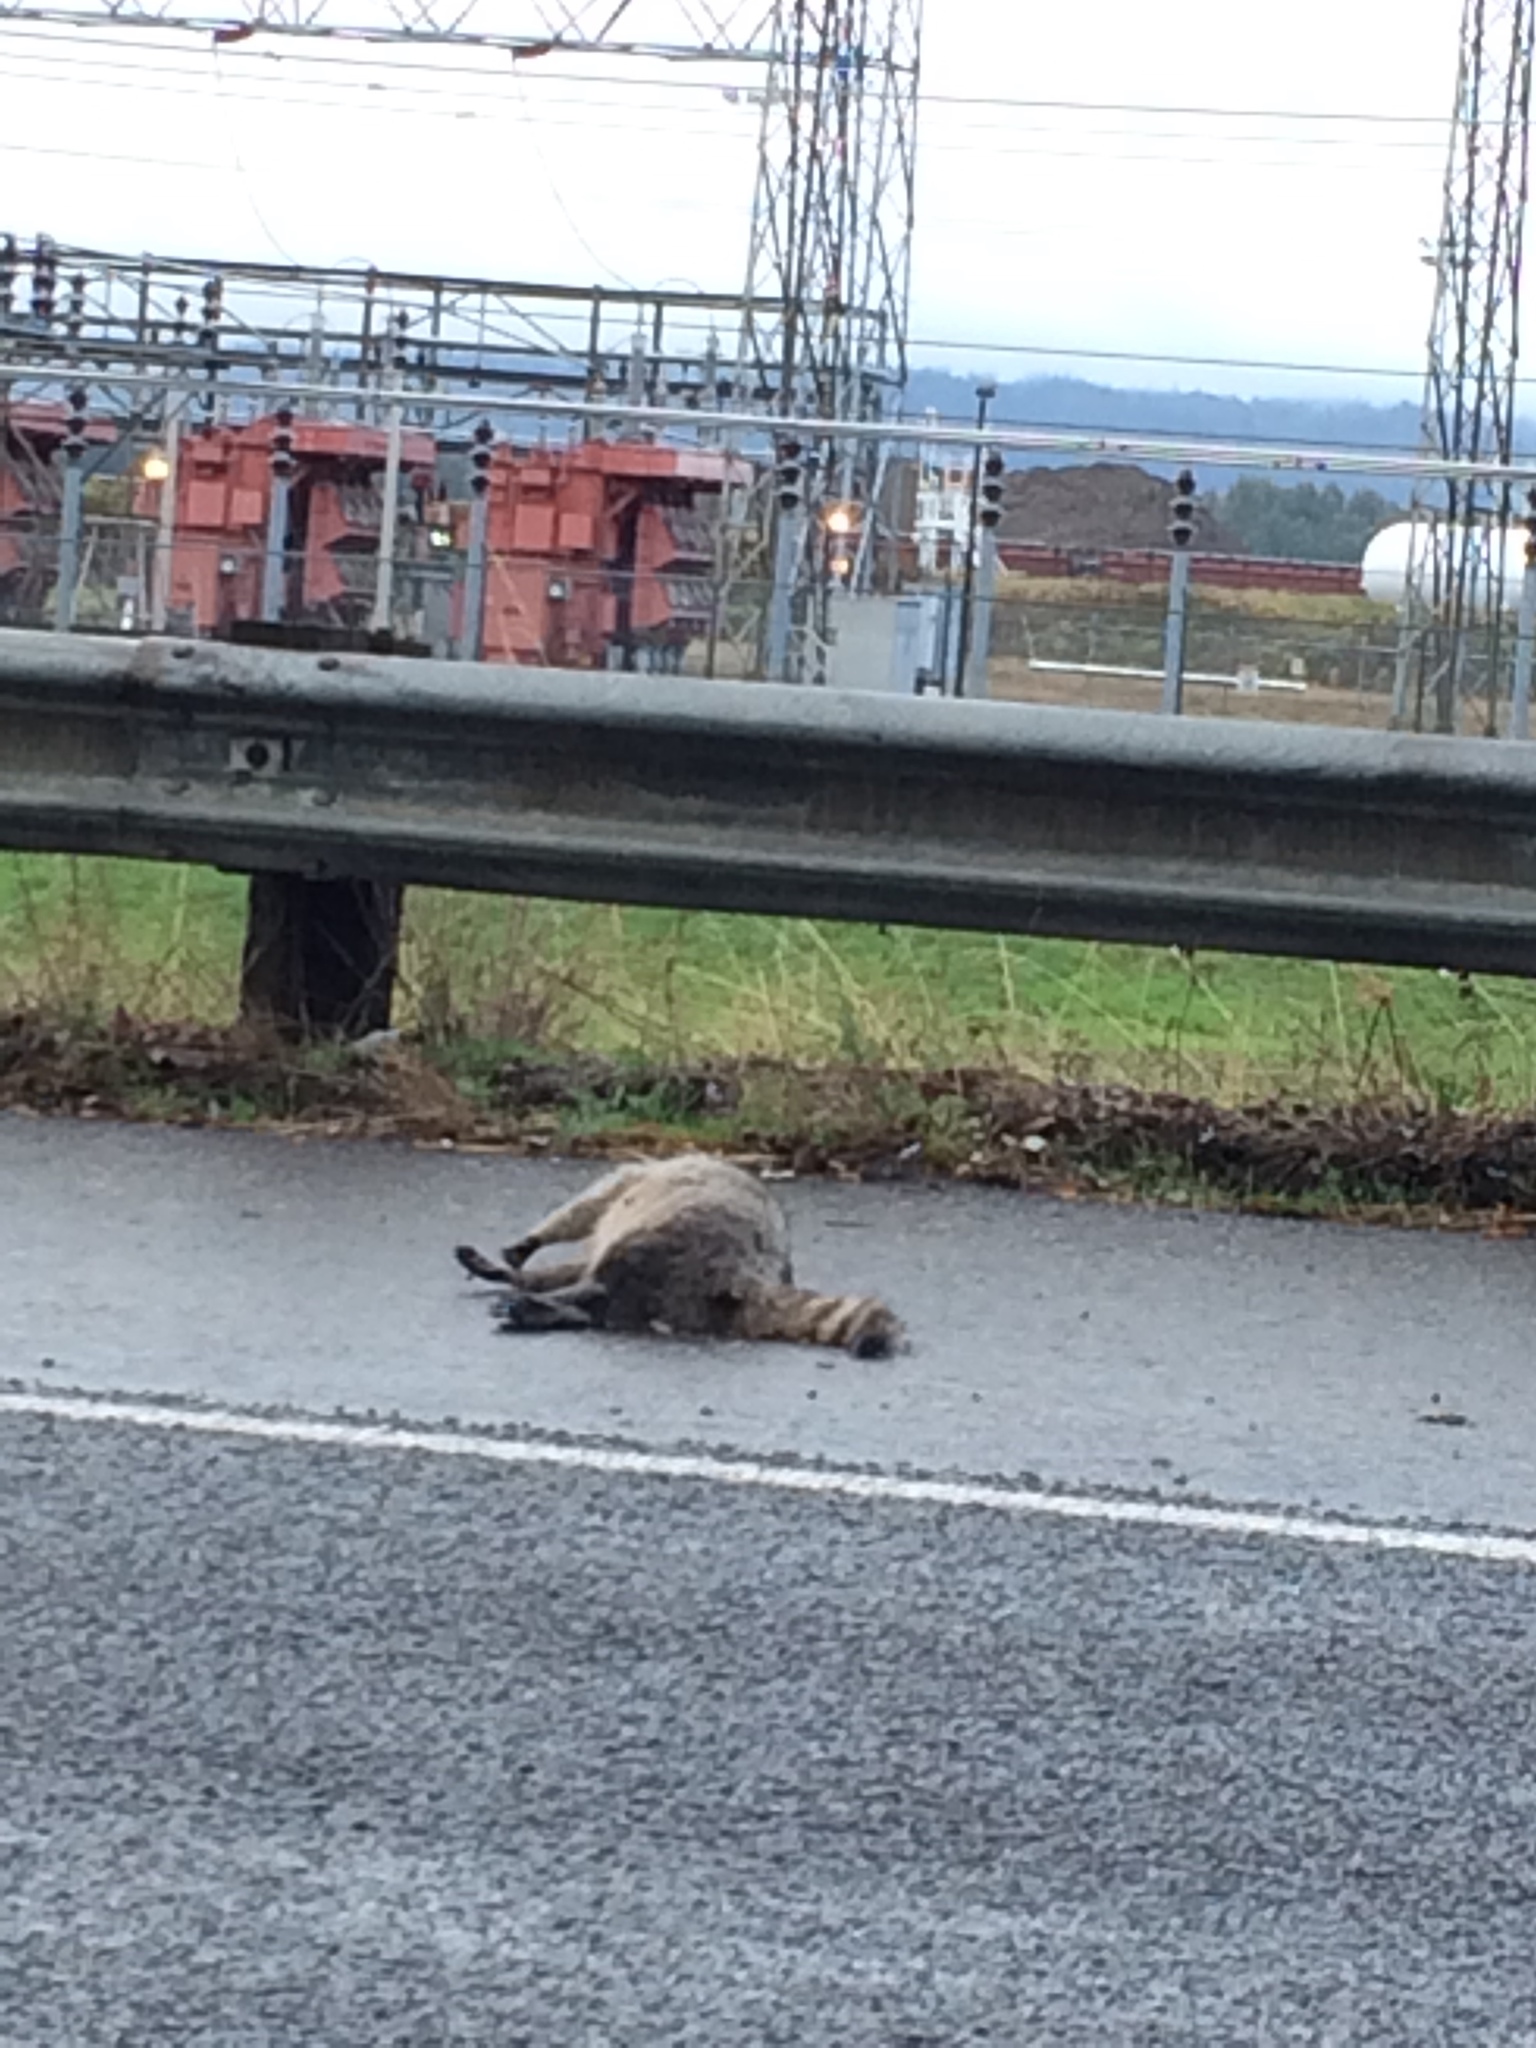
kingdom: Animalia
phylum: Chordata
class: Mammalia
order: Carnivora
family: Procyonidae
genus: Procyon
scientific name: Procyon lotor
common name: Raccoon
